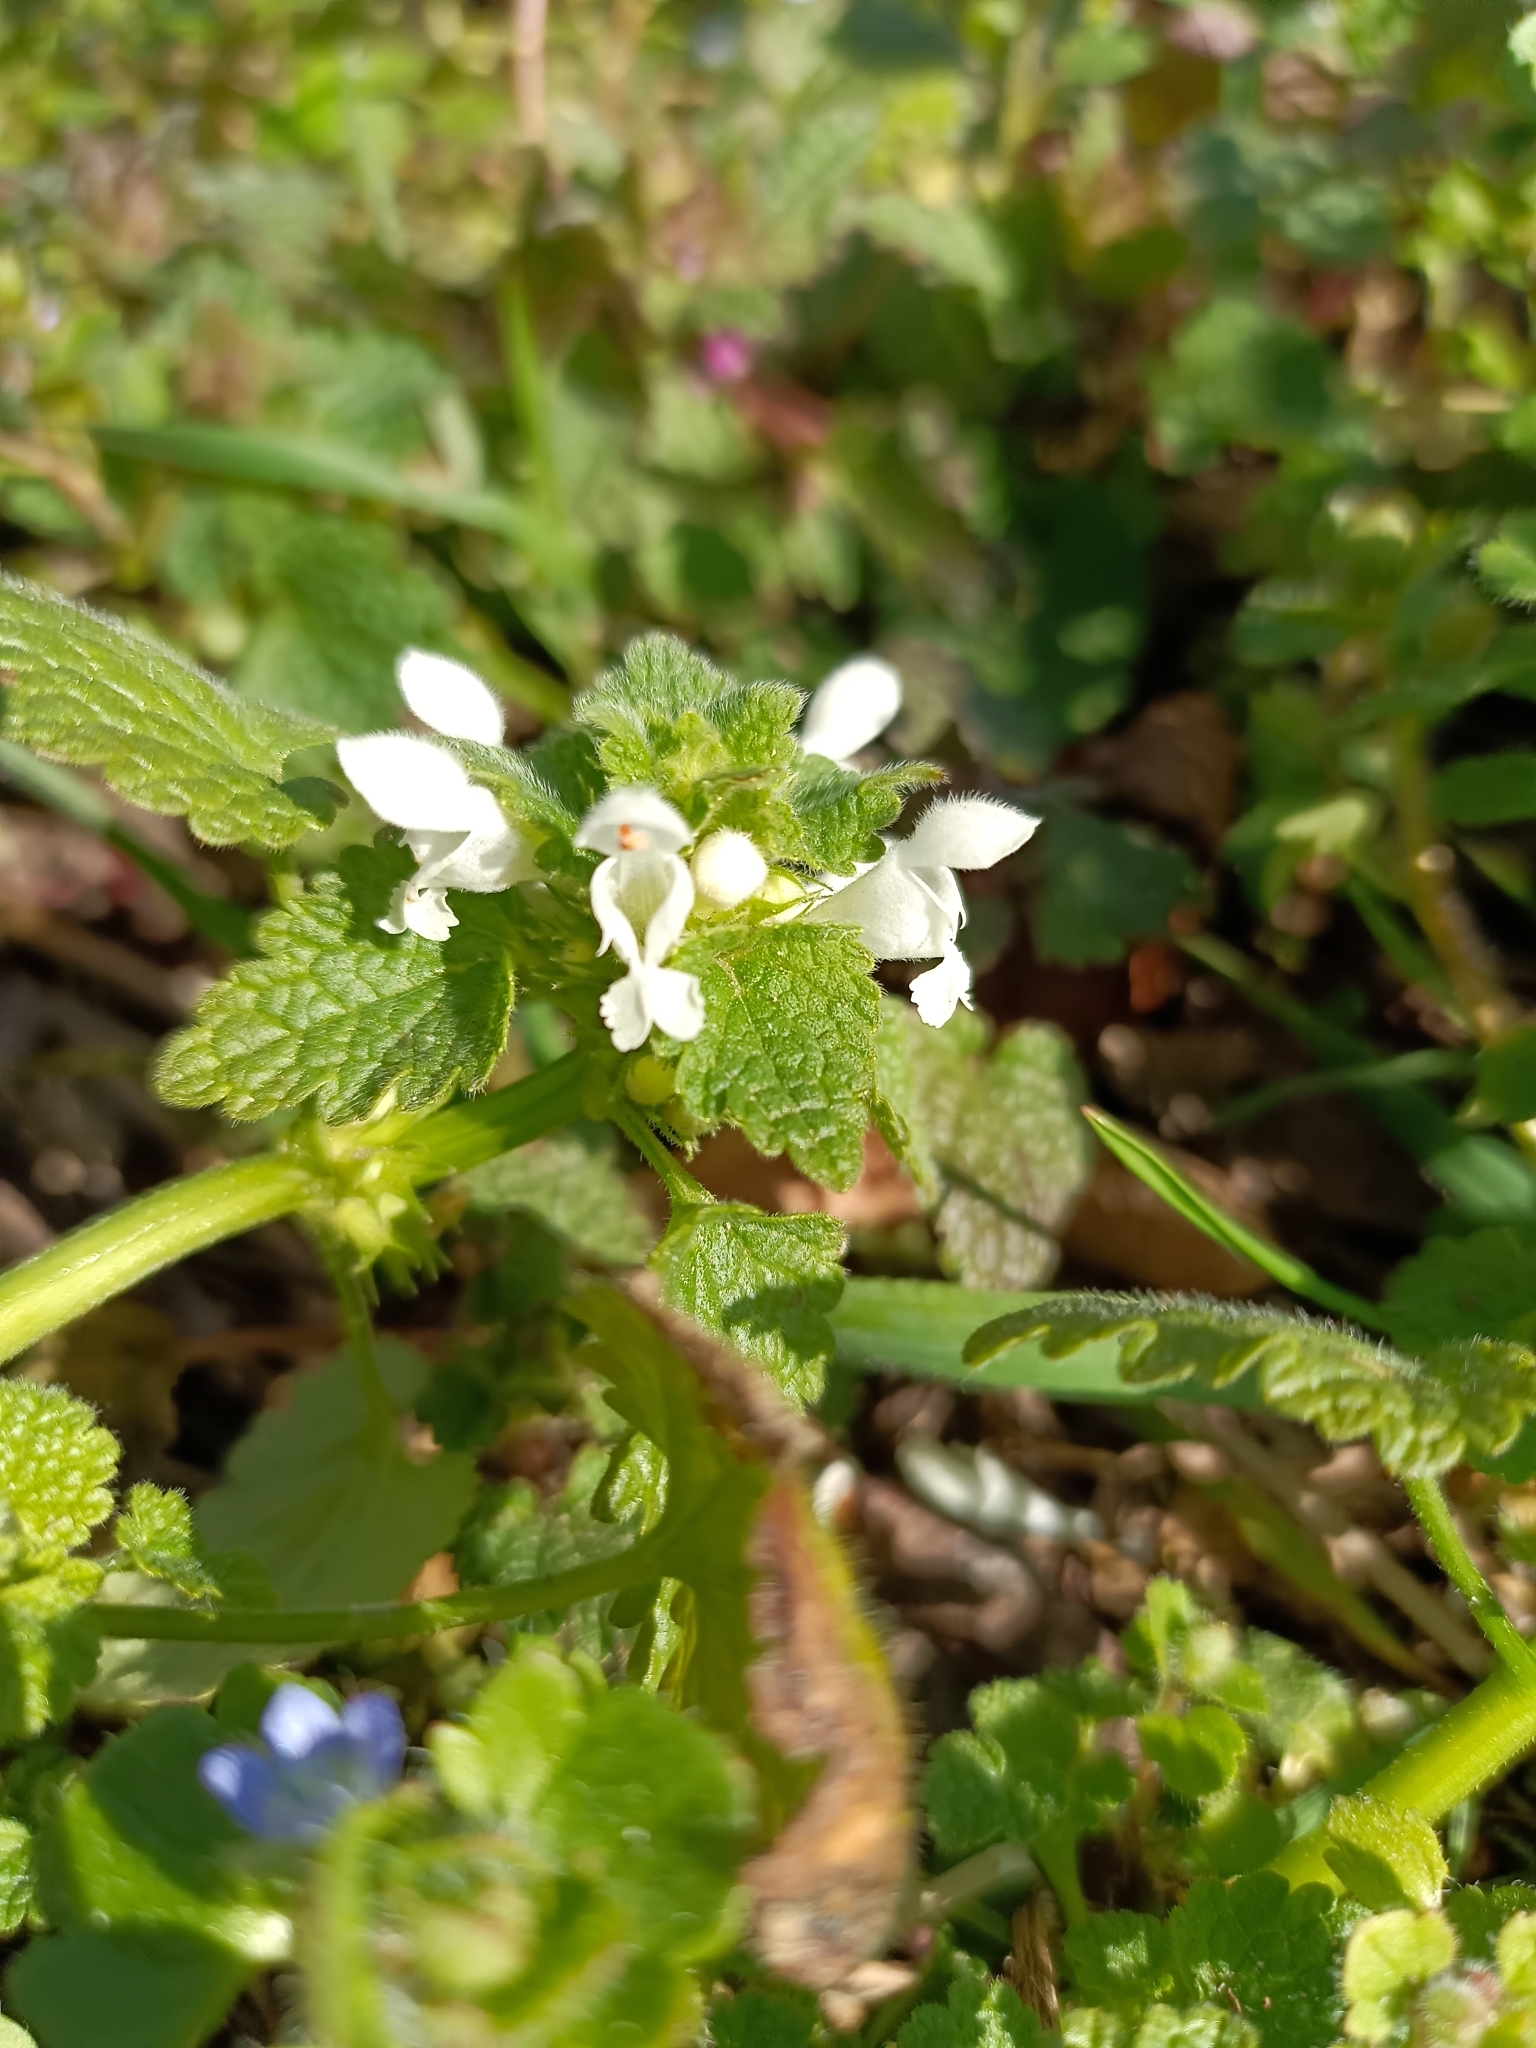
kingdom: Plantae
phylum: Tracheophyta
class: Magnoliopsida
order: Lamiales
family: Lamiaceae
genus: Lamium
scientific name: Lamium purpureum
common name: Red dead-nettle
